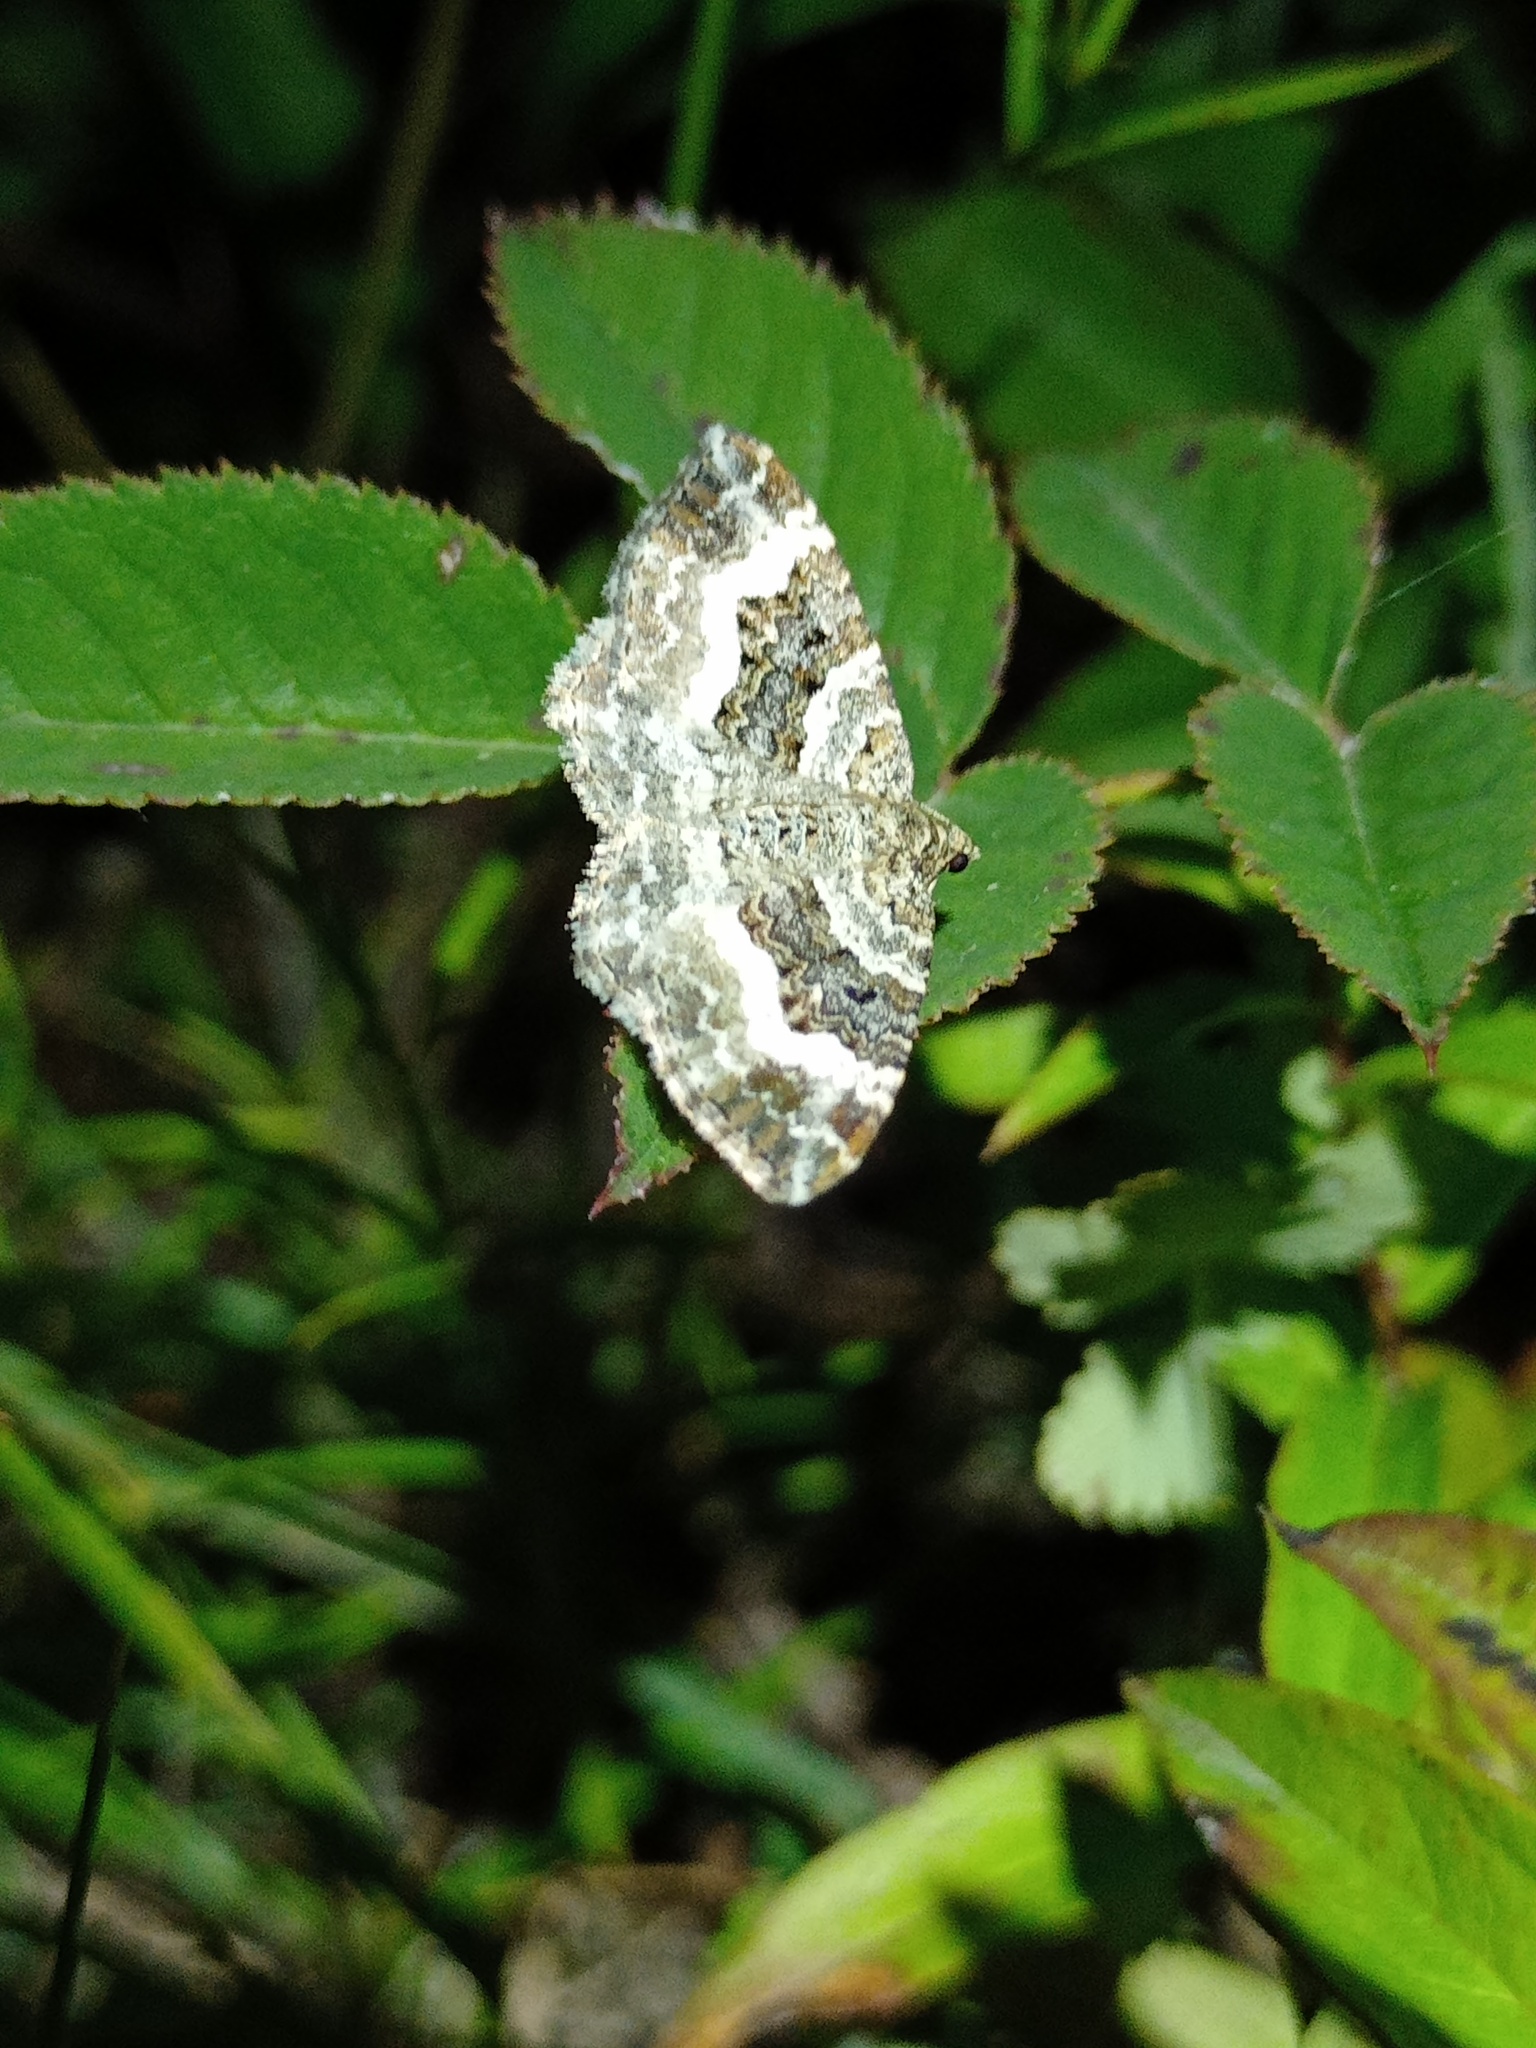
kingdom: Animalia
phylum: Arthropoda
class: Insecta
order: Lepidoptera
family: Geometridae
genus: Epirrhoe
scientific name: Epirrhoe alternata
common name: Common carpet
